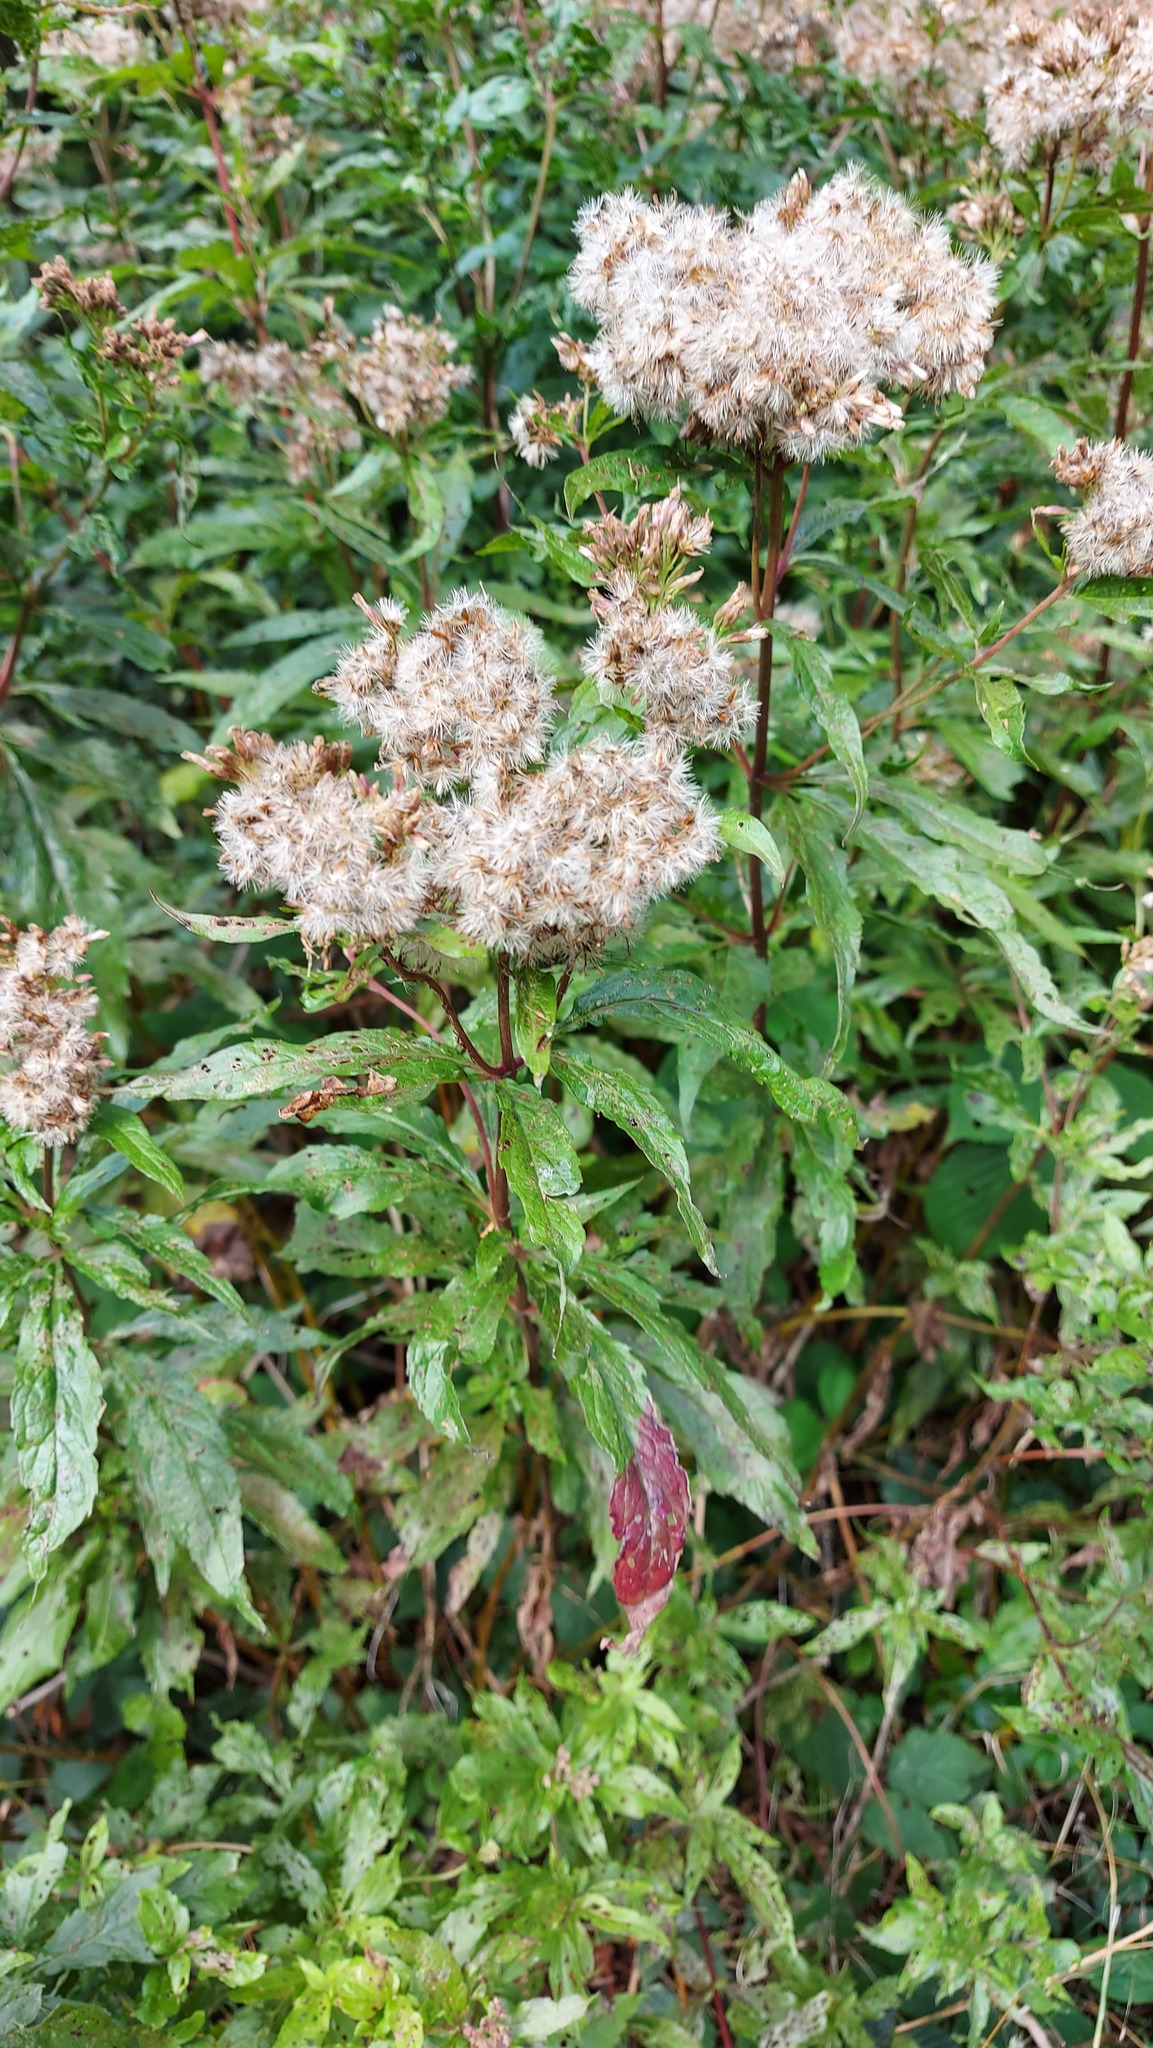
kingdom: Plantae
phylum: Tracheophyta
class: Magnoliopsida
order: Asterales
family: Asteraceae
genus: Eupatorium
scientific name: Eupatorium cannabinum
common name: Hemp-agrimony
